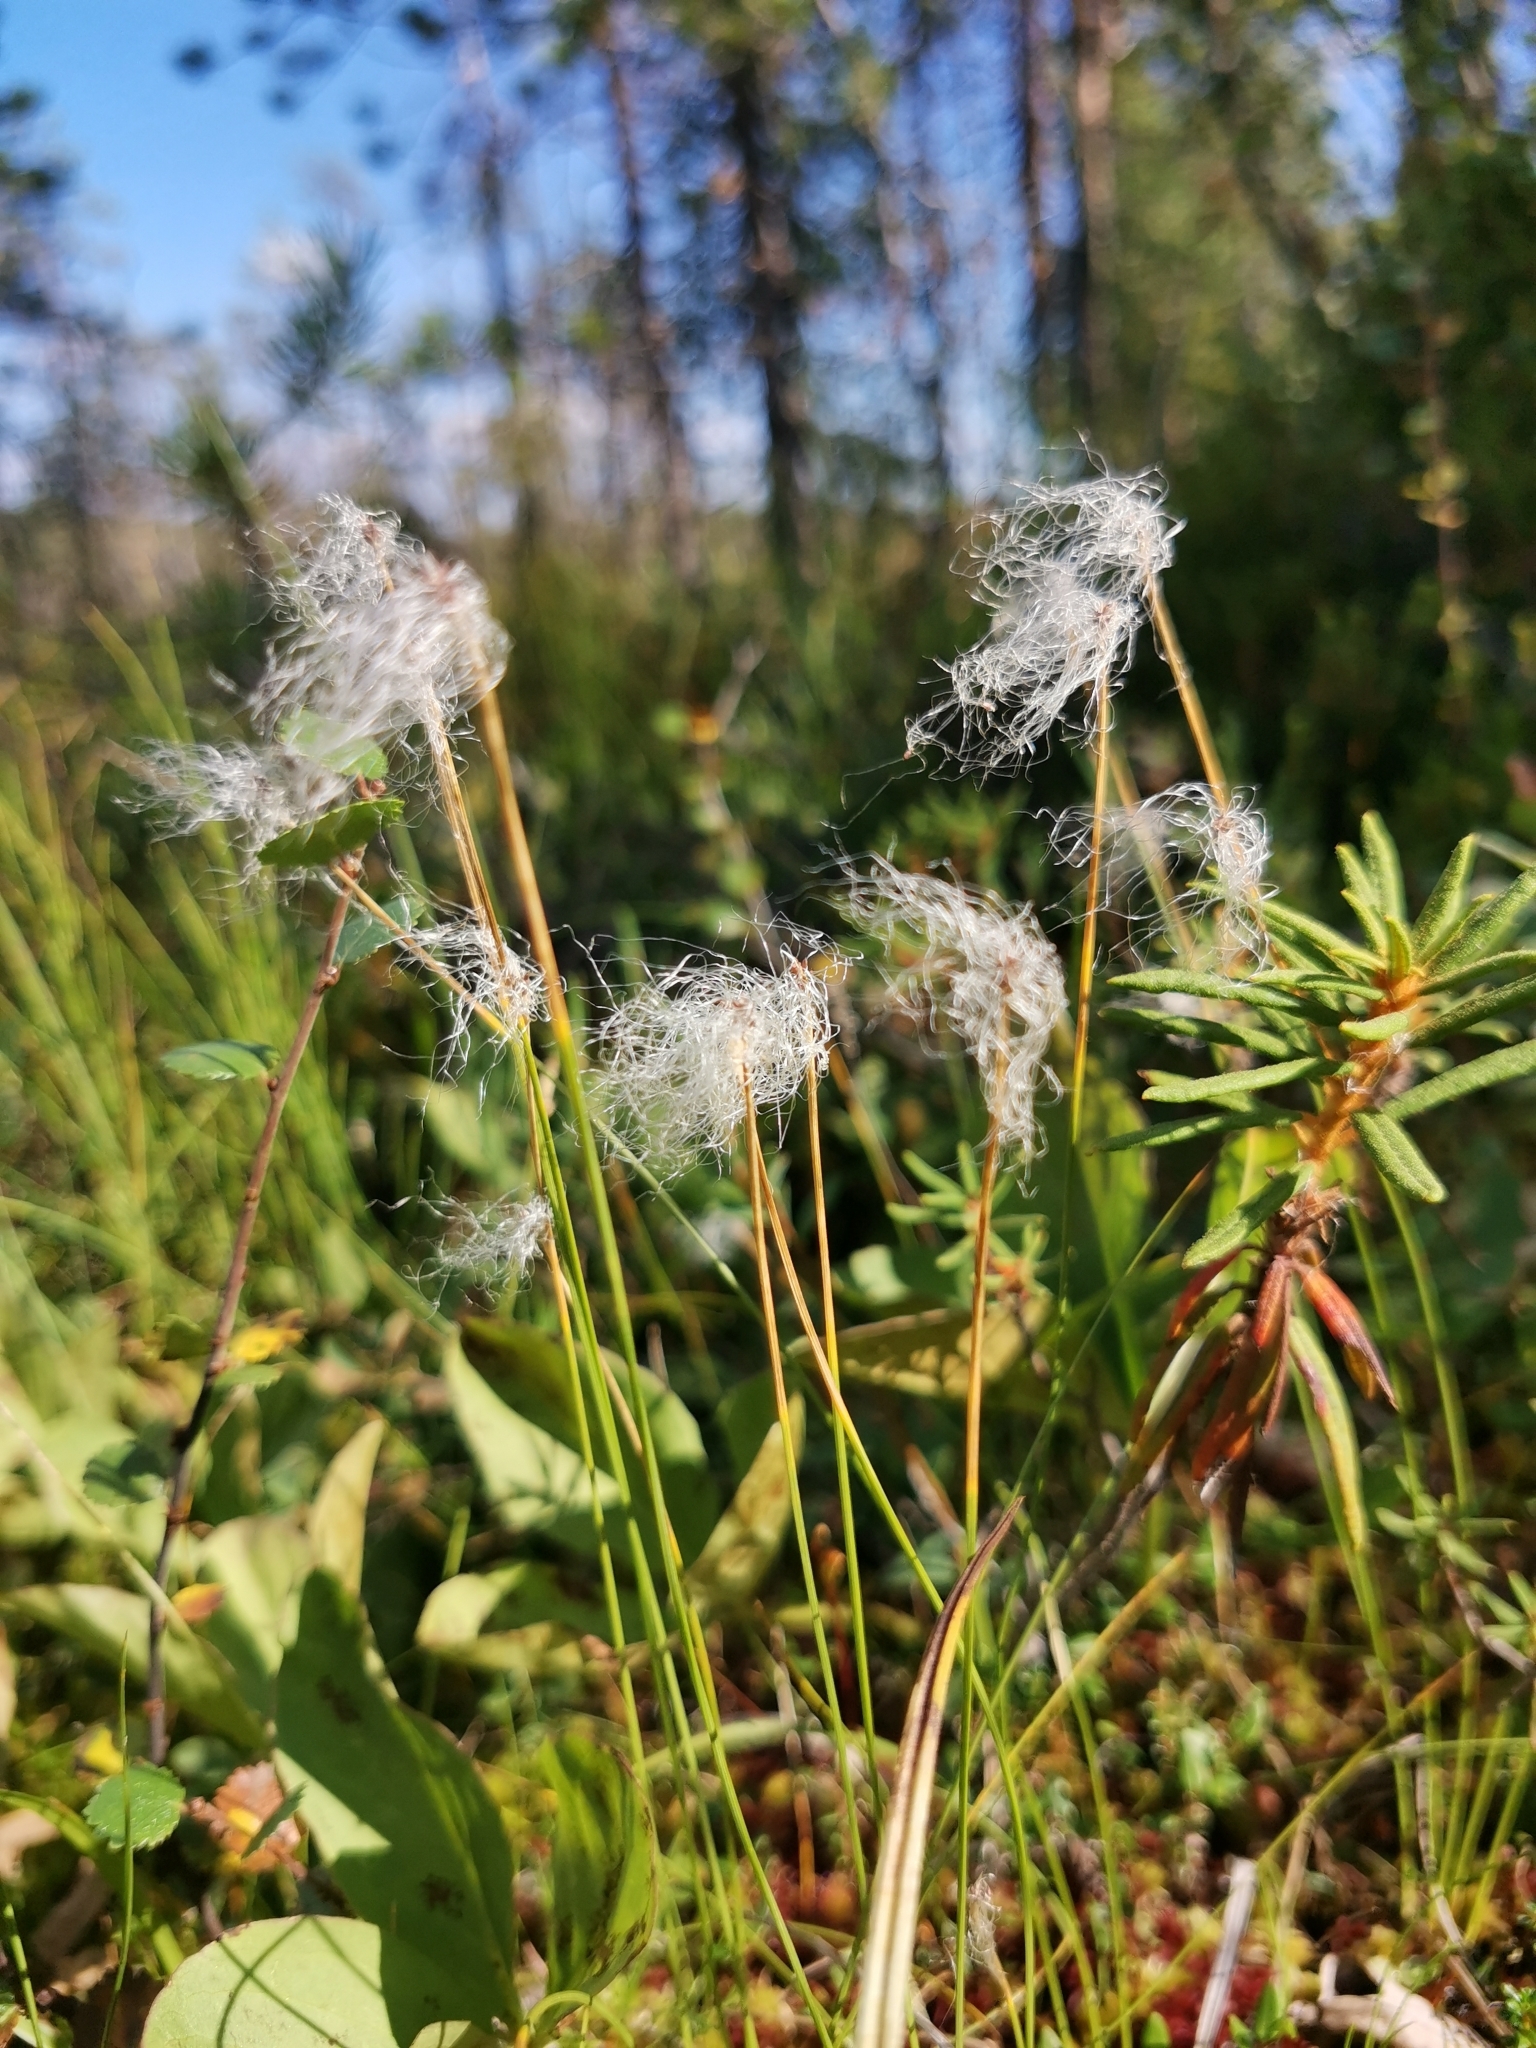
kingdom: Plantae
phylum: Tracheophyta
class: Liliopsida
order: Poales
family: Cyperaceae
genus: Trichophorum
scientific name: Trichophorum alpinum
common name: Alpine bulrush
